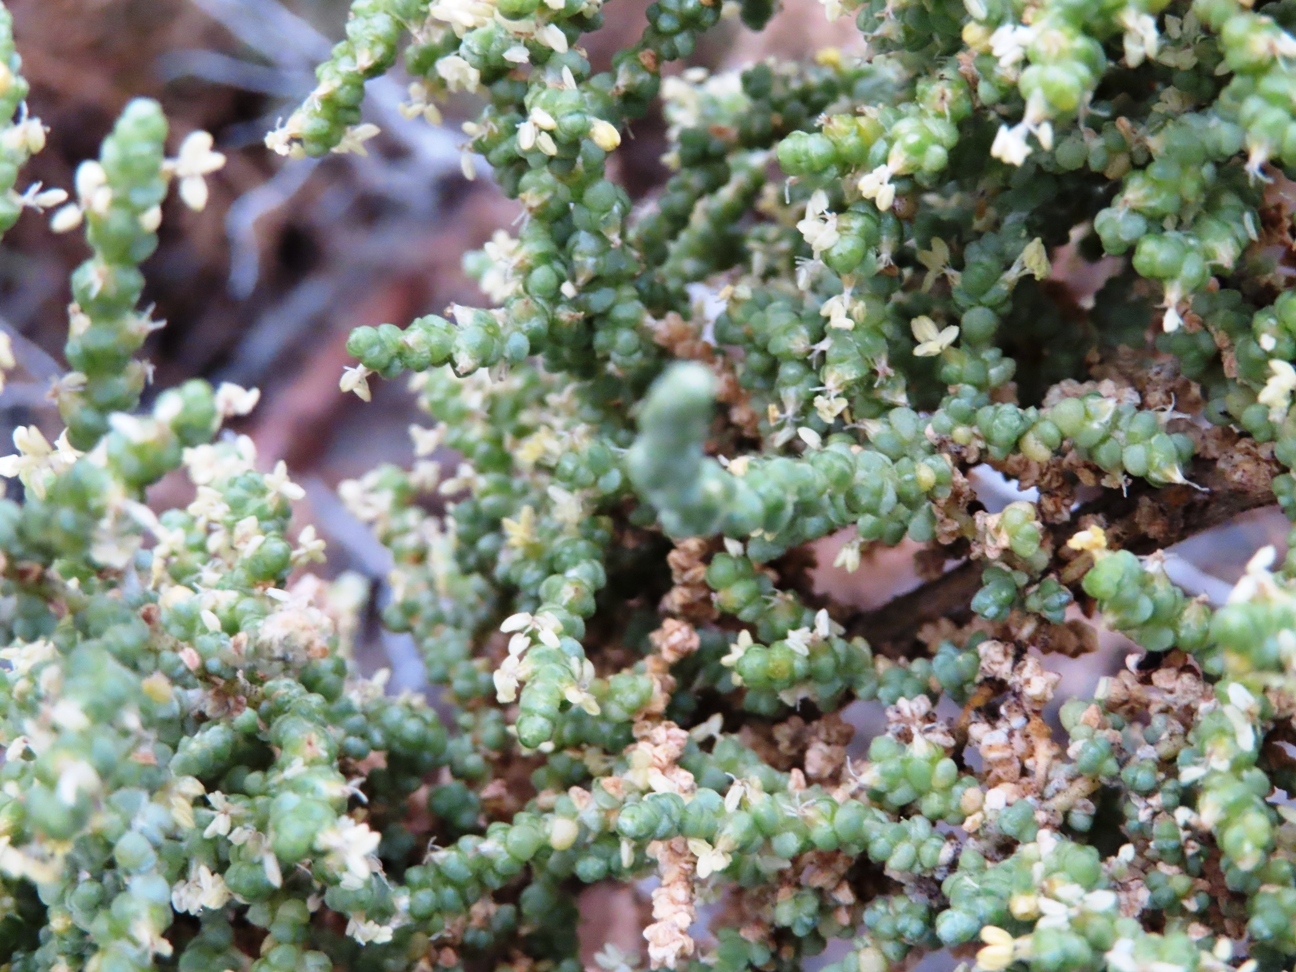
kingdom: Plantae
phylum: Tracheophyta
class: Magnoliopsida
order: Caryophyllales
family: Amaranthaceae
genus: Caroxylon
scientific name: Caroxylon aphyllum
